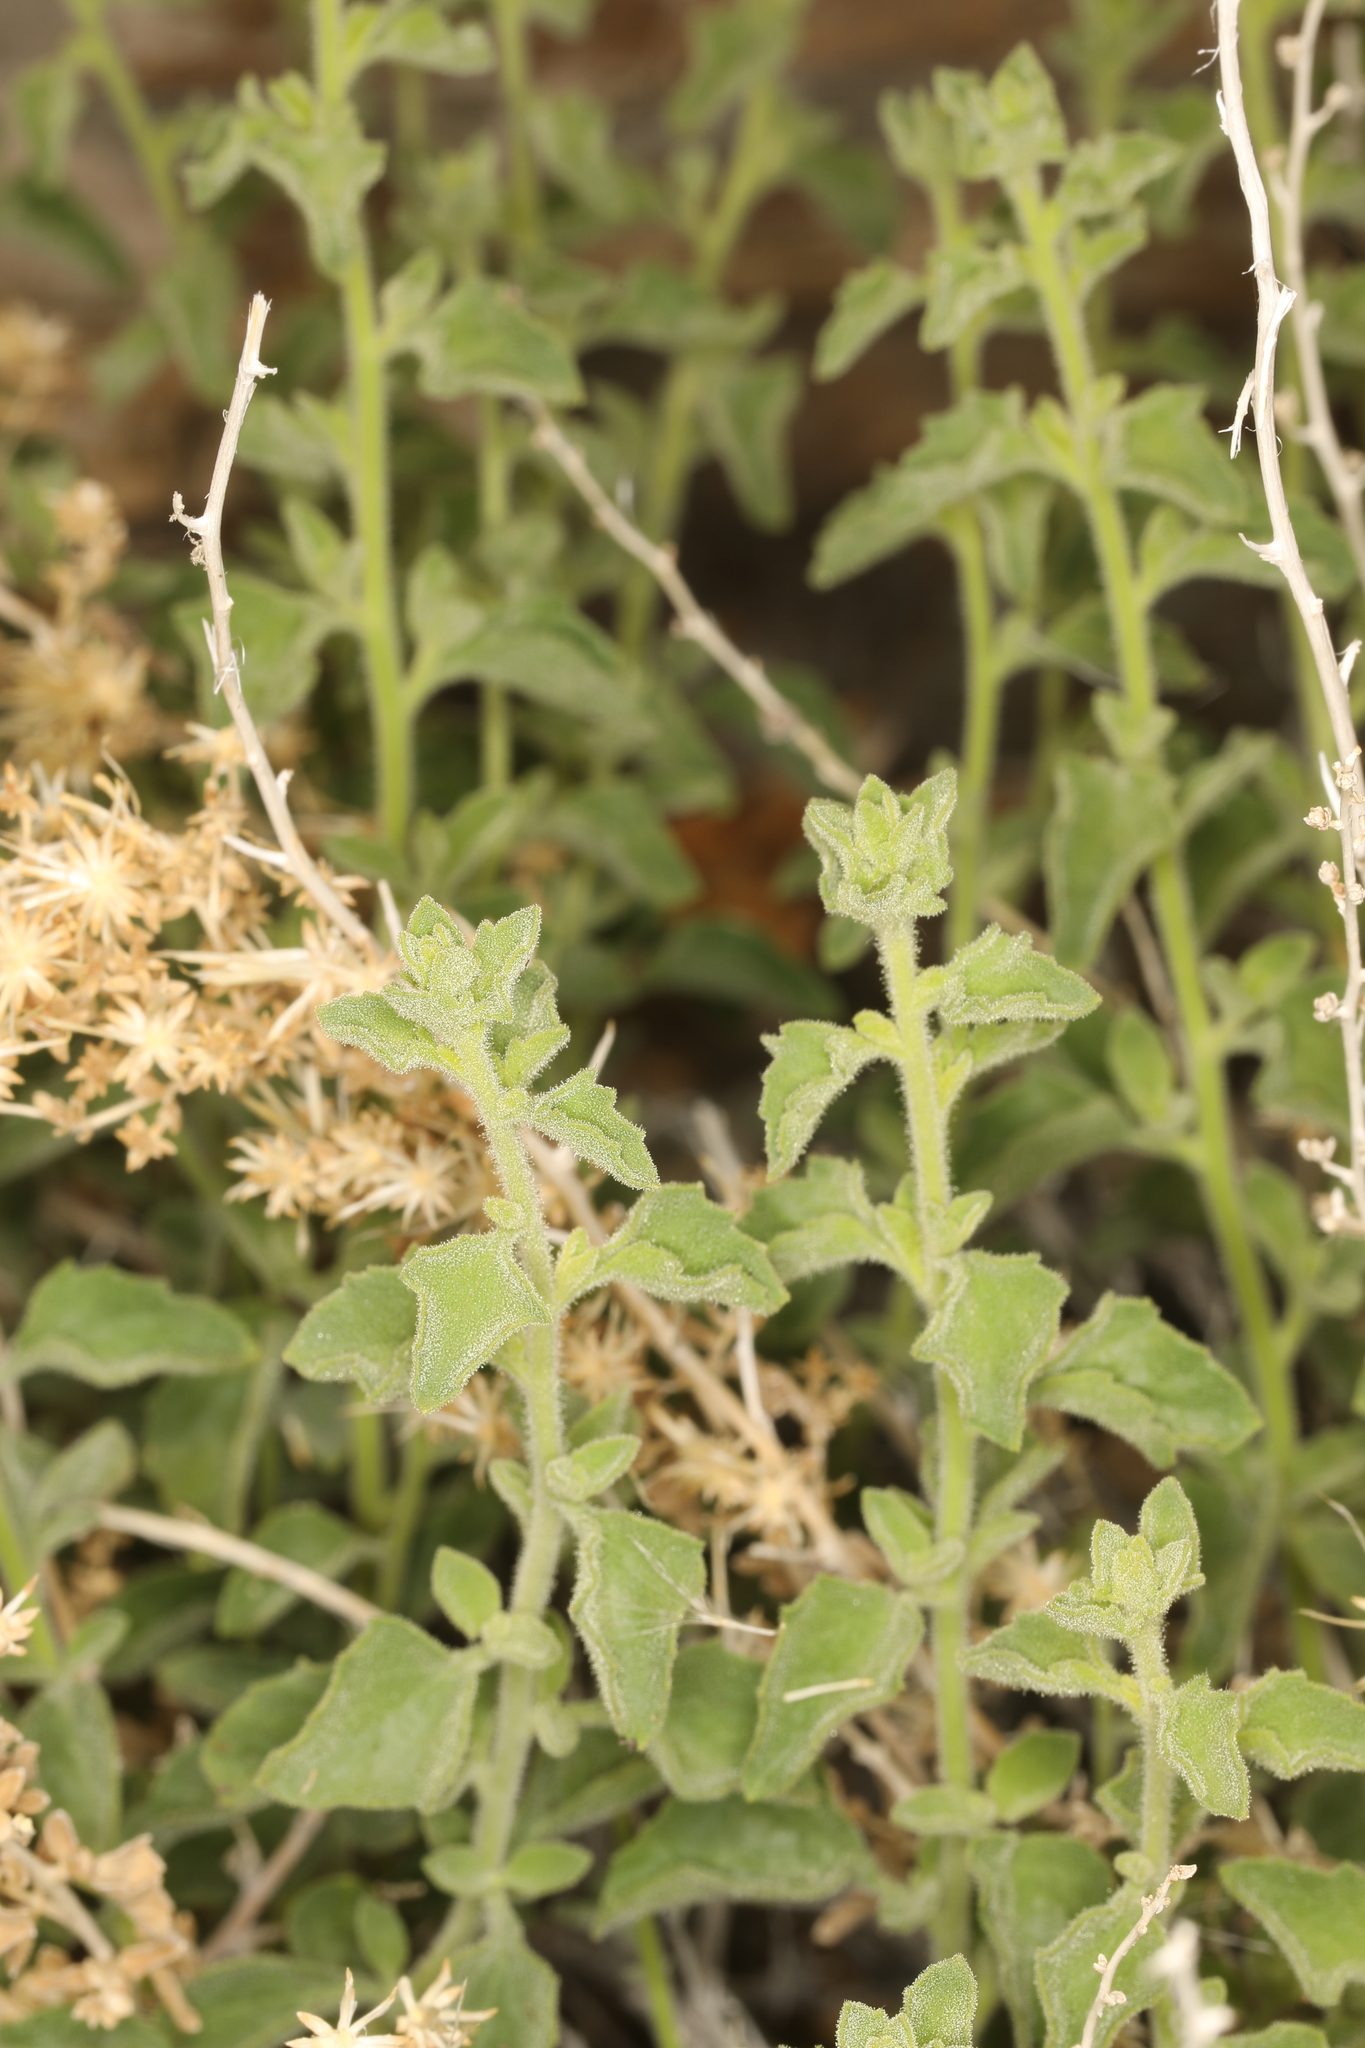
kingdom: Plantae
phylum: Tracheophyta
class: Magnoliopsida
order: Asterales
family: Asteraceae
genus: Brickellia
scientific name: Brickellia microphylla
